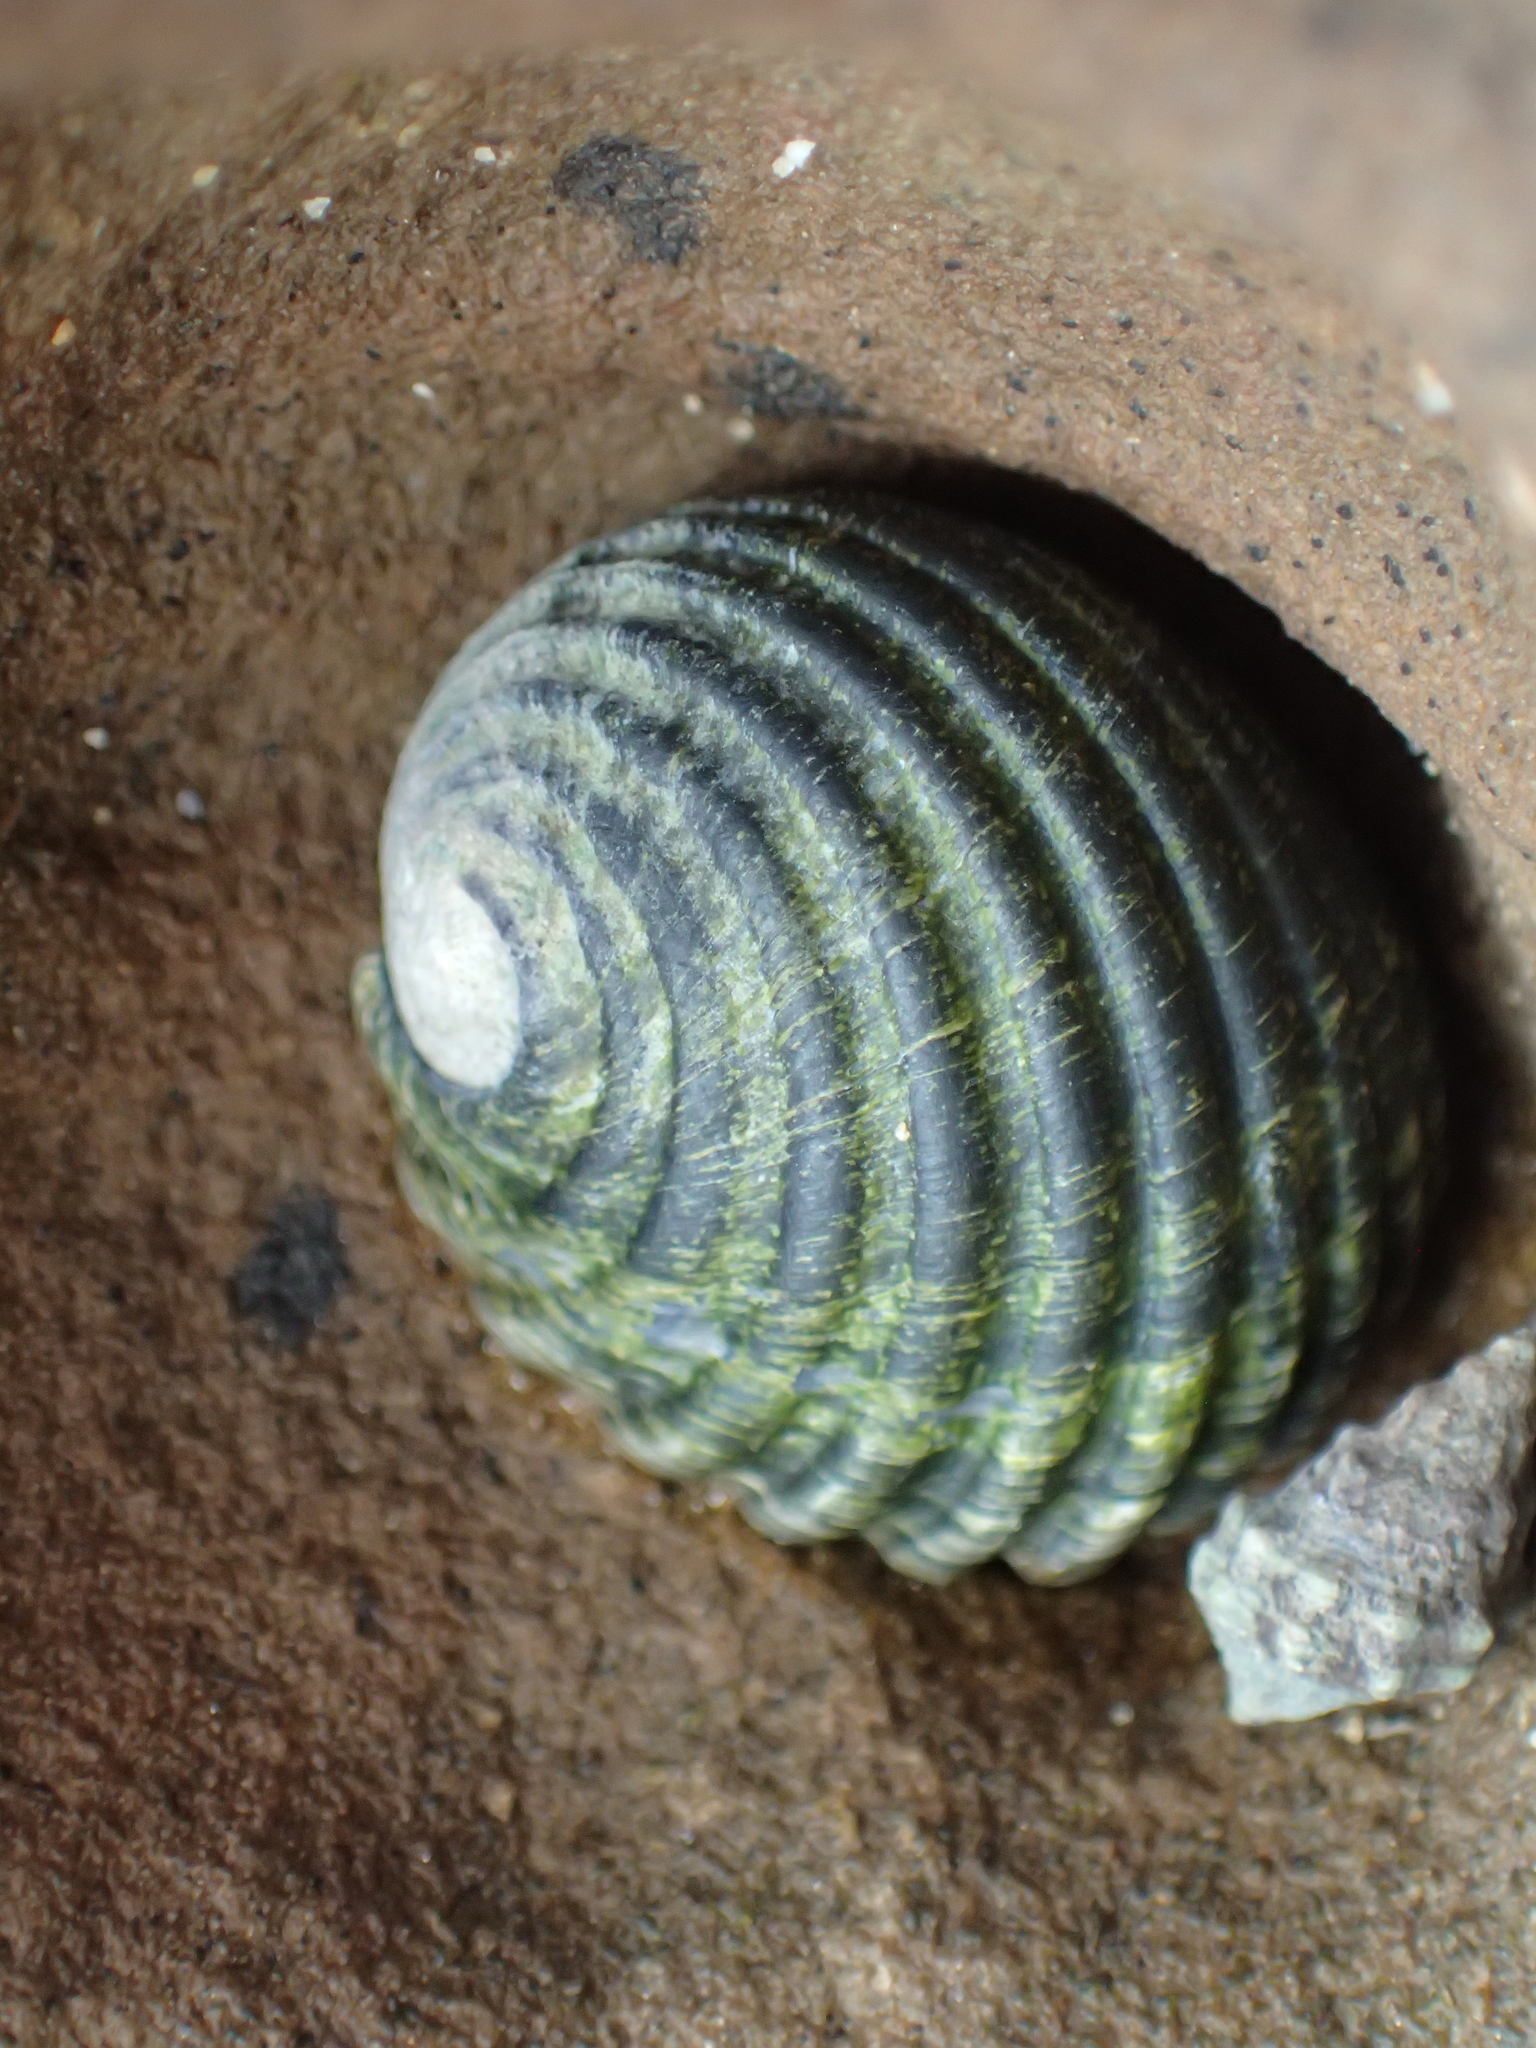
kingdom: Animalia
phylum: Mollusca
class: Gastropoda
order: Cycloneritida
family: Neritidae
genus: Nerita
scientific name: Nerita costata
